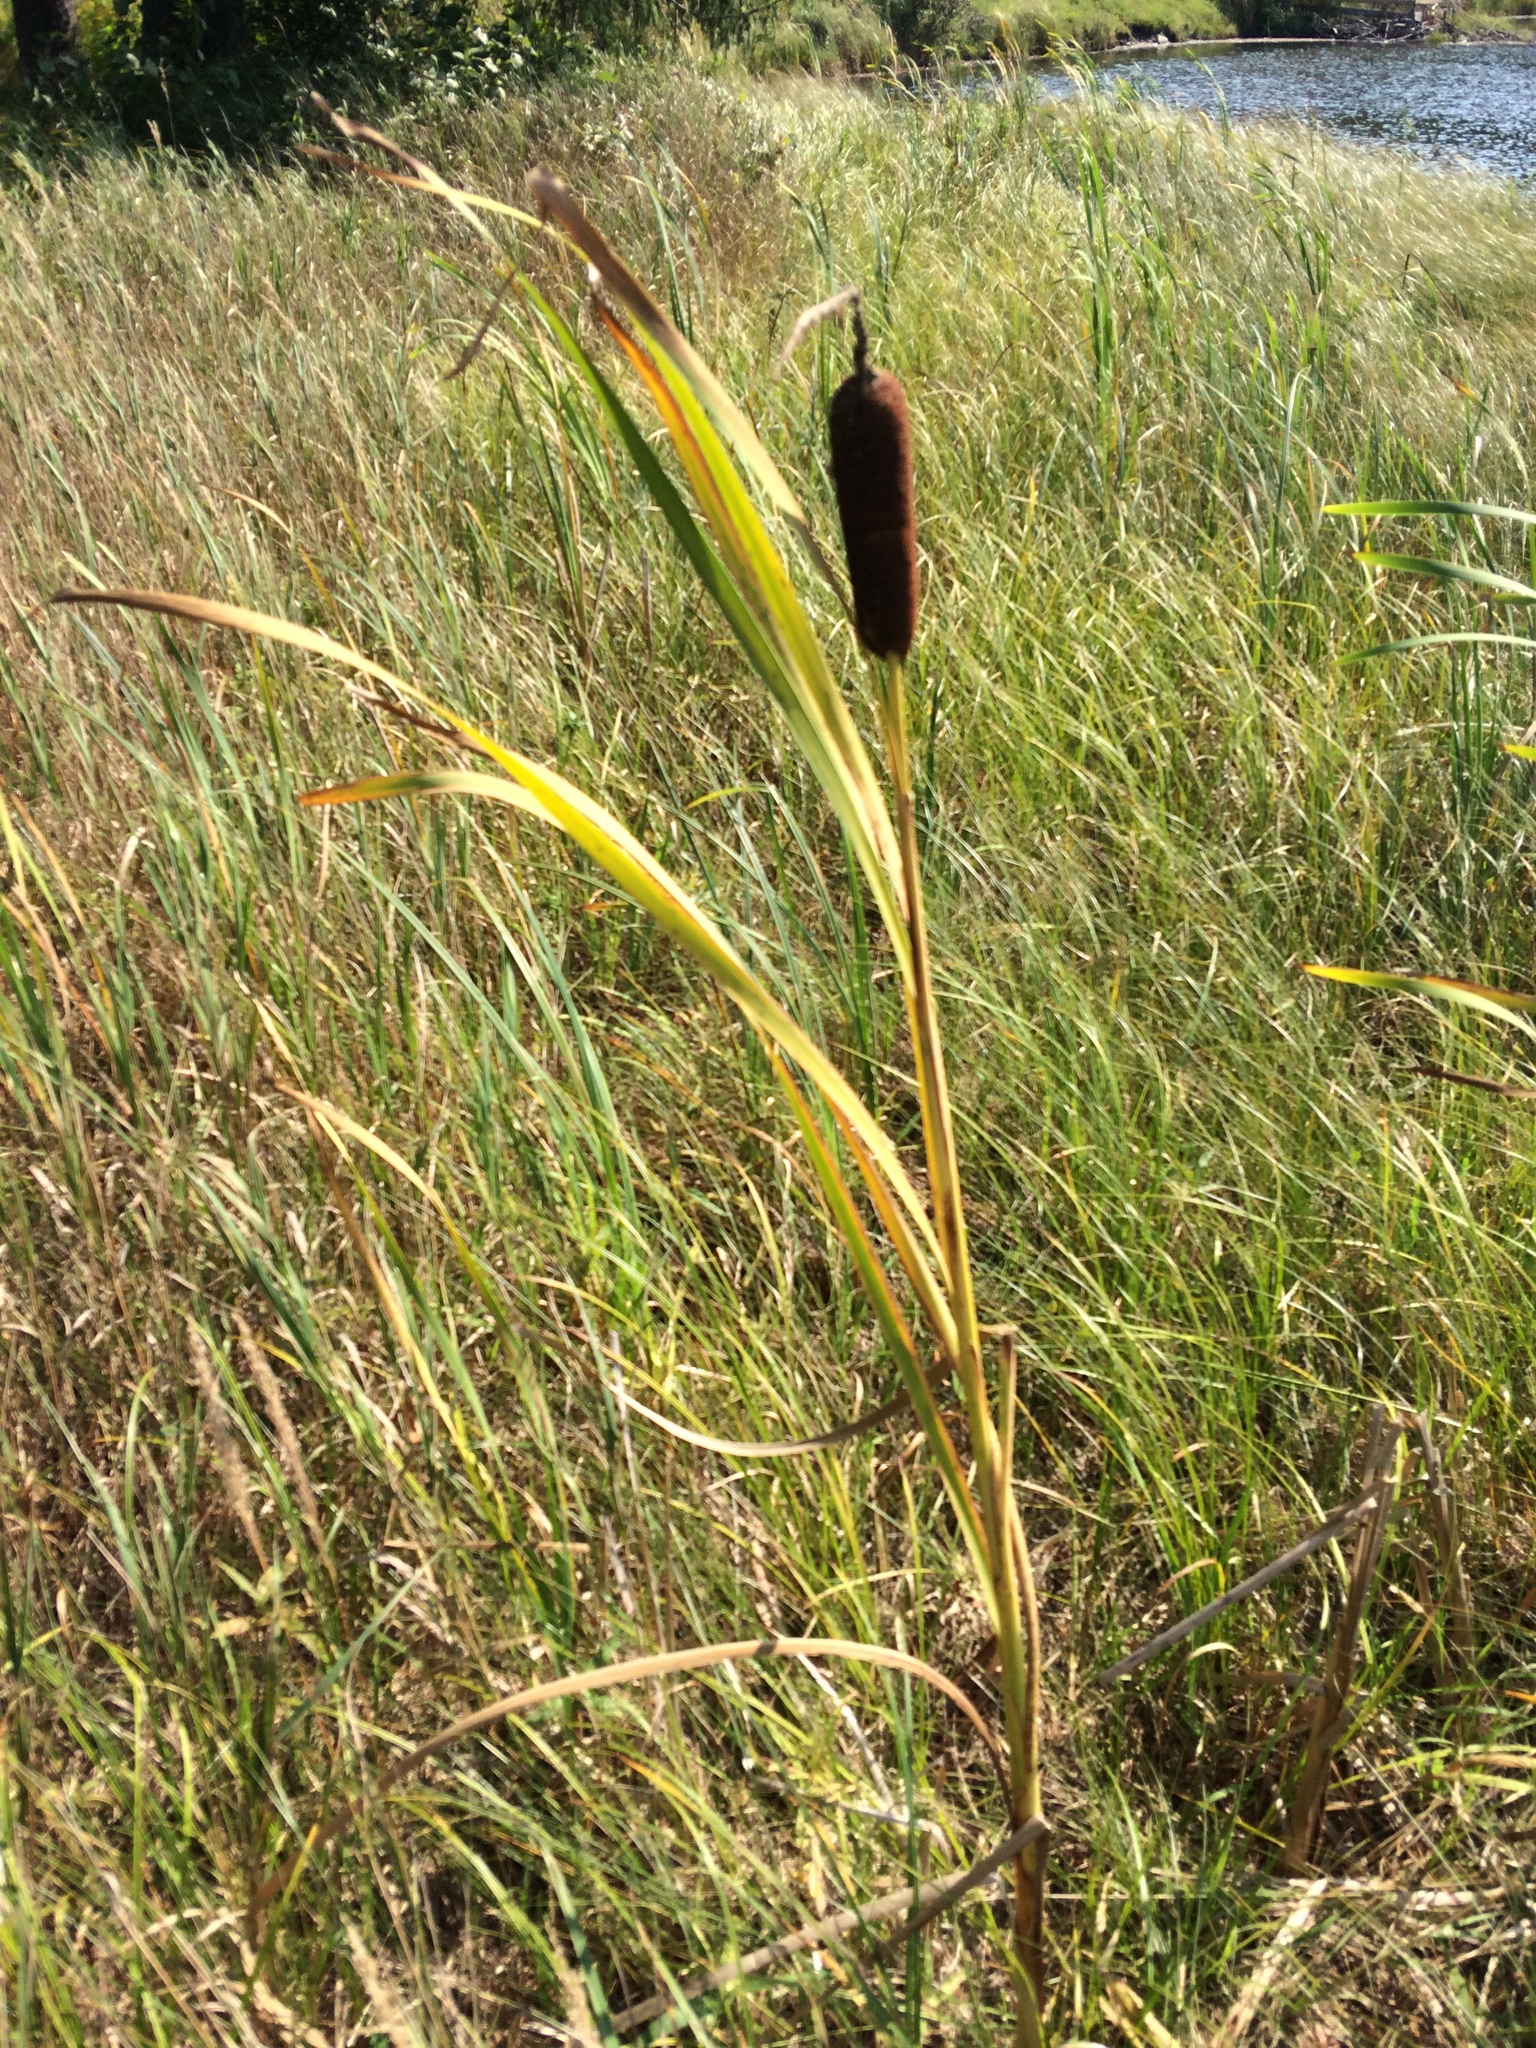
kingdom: Plantae
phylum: Tracheophyta
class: Liliopsida
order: Poales
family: Typhaceae
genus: Typha
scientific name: Typha latifolia
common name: Broadleaf cattail
